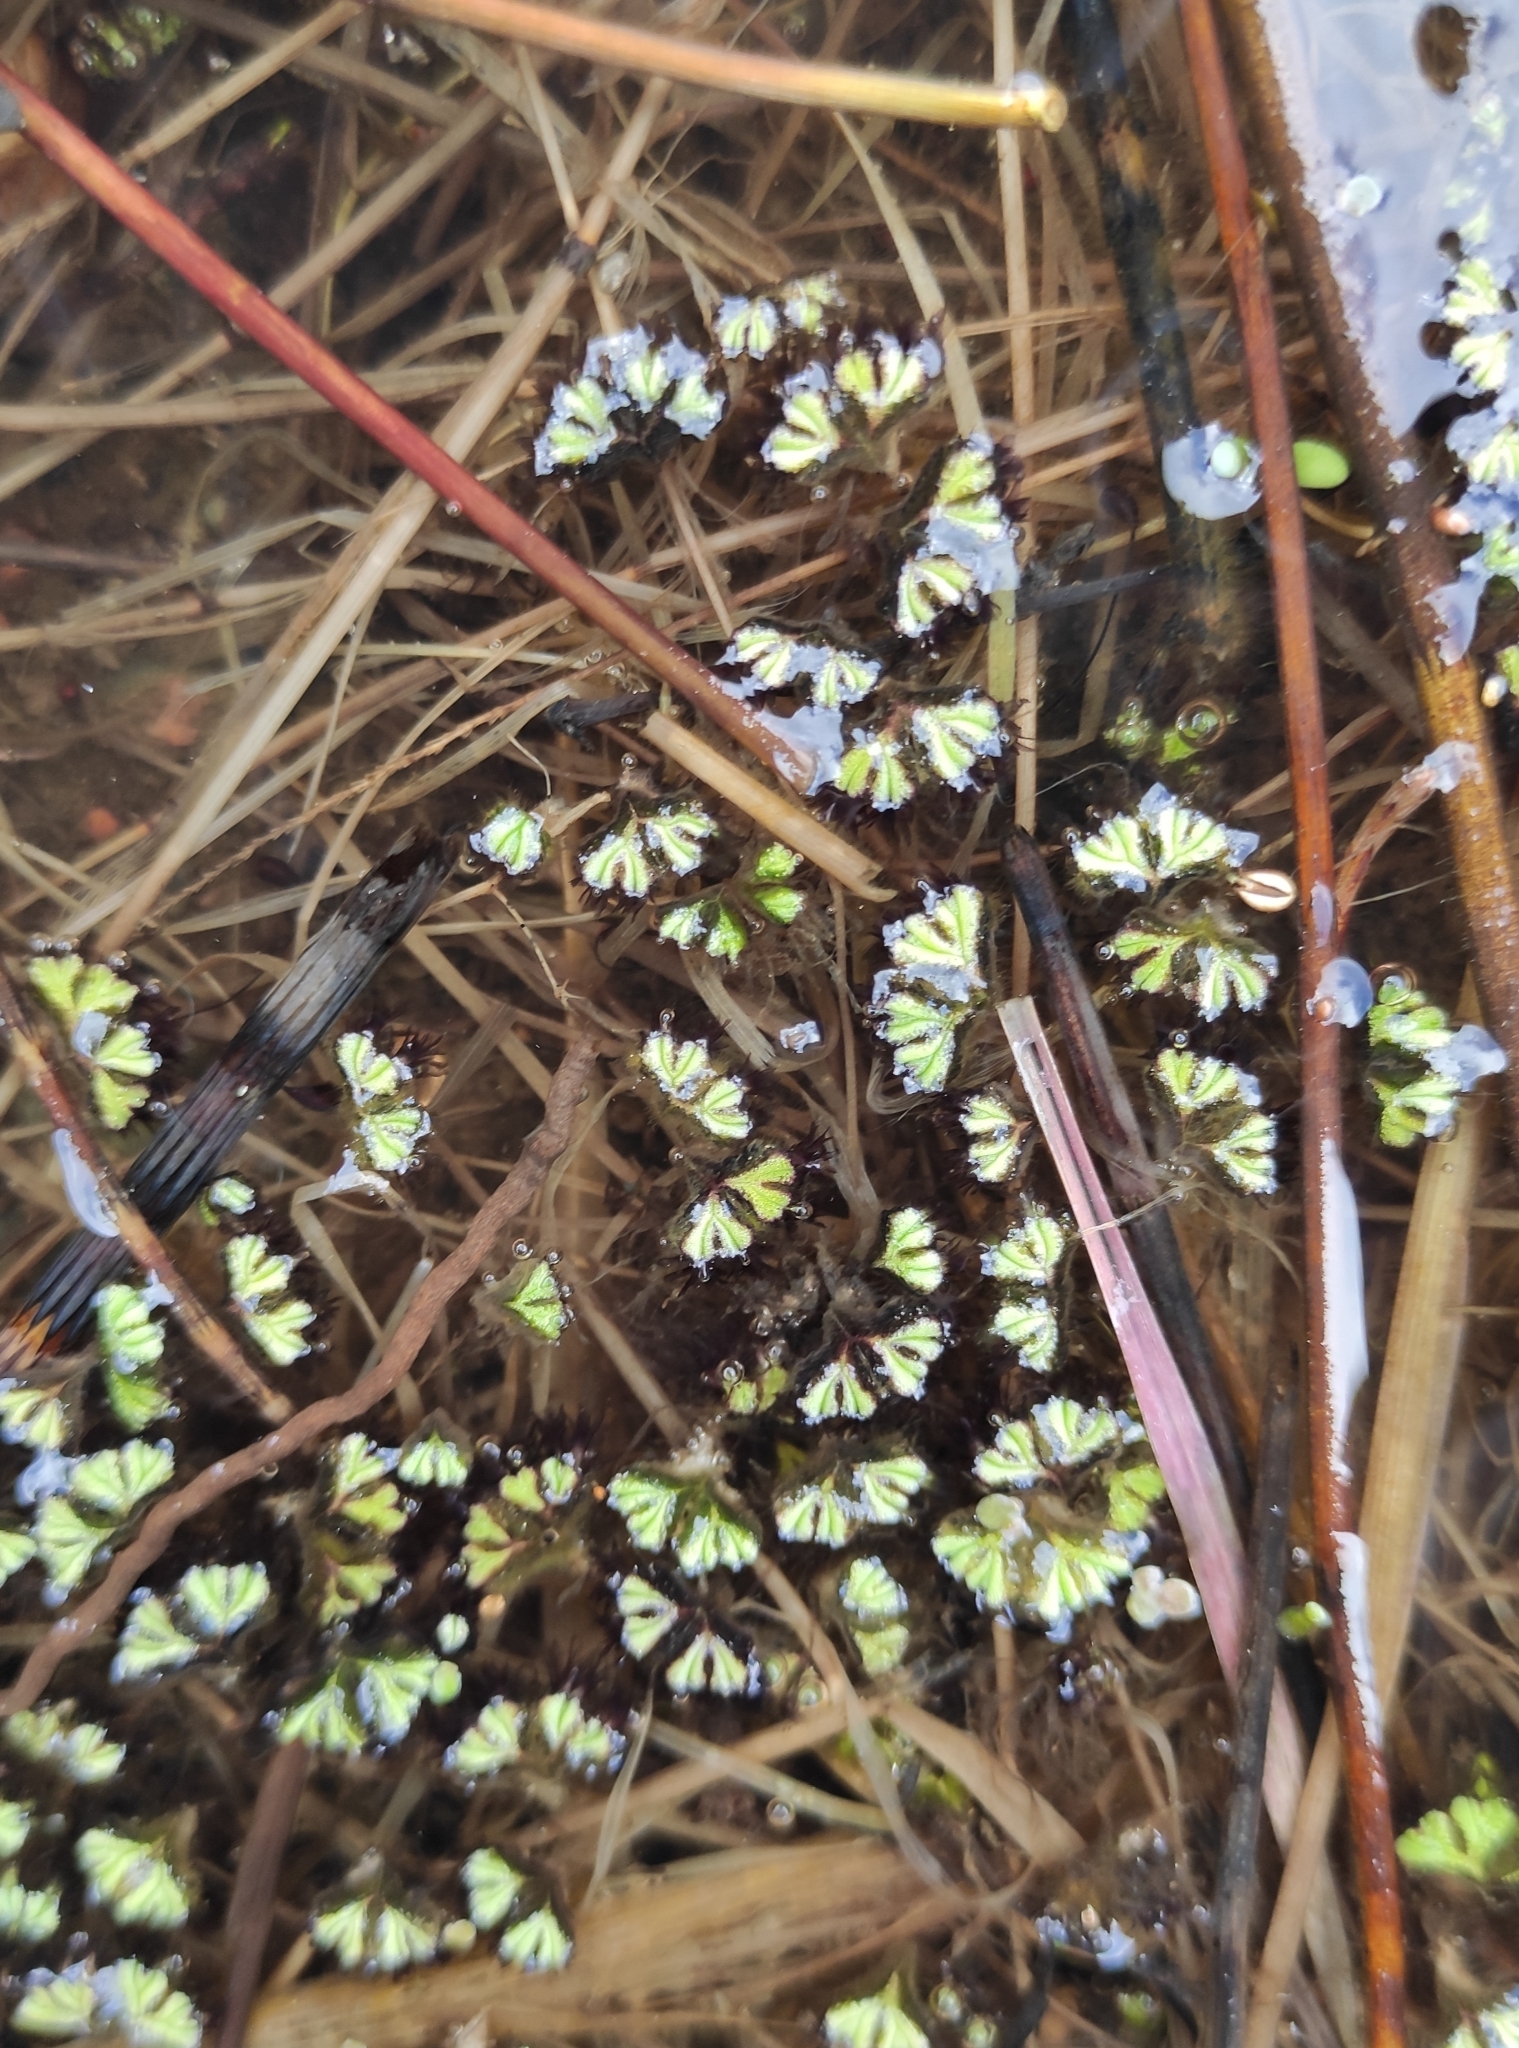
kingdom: Plantae
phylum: Marchantiophyta
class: Marchantiopsida
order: Marchantiales
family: Ricciaceae
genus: Ricciocarpos
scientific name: Ricciocarpos natans
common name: Purple-fringed liverwort
